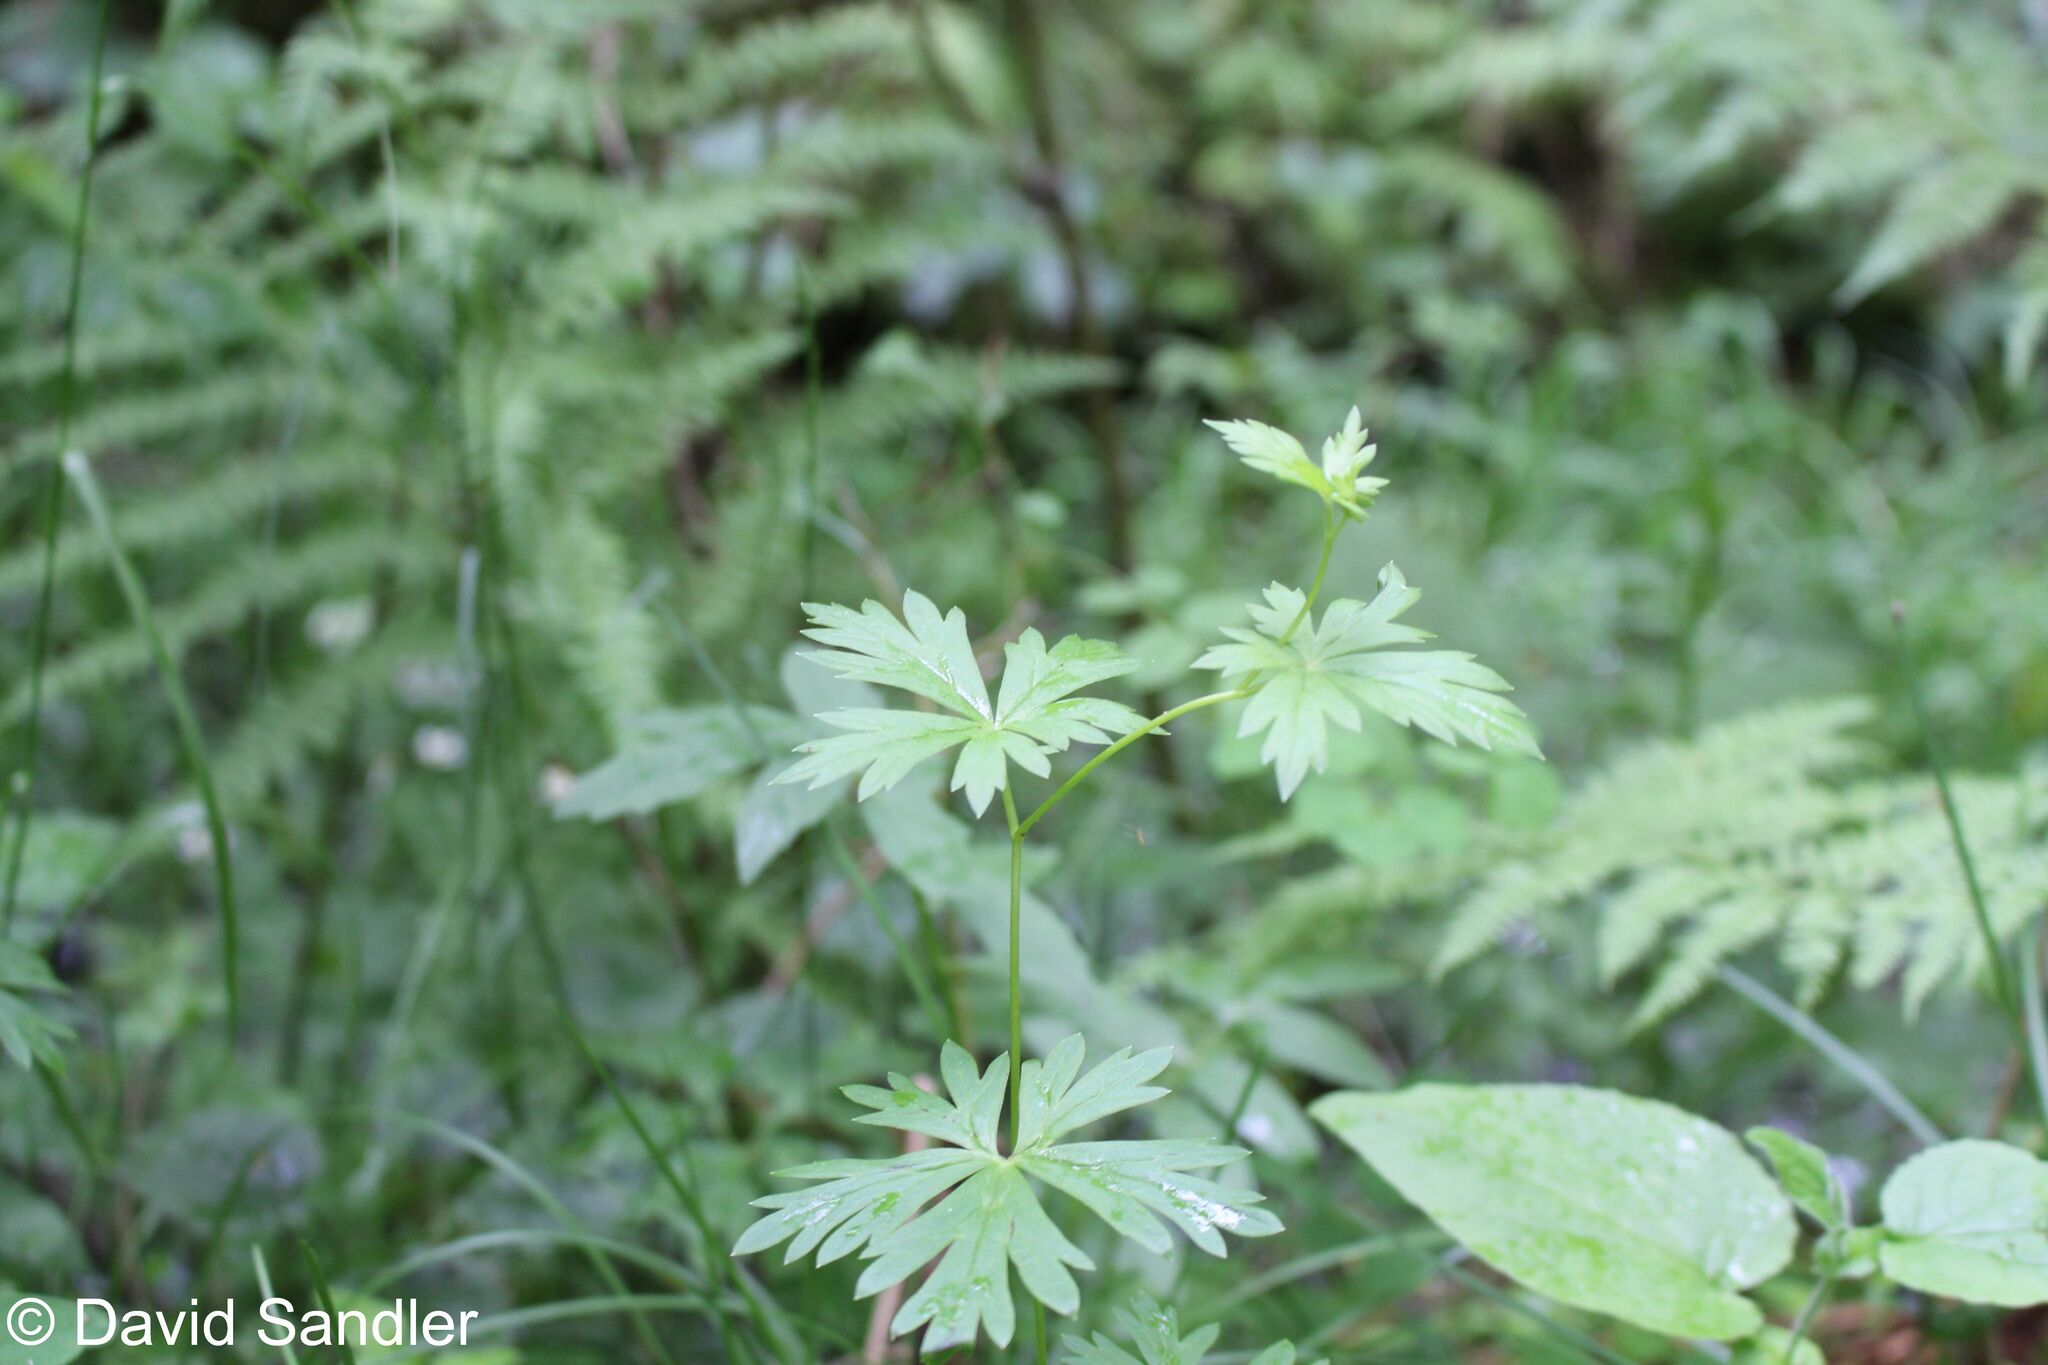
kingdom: Plantae
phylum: Tracheophyta
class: Magnoliopsida
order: Ranunculales
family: Ranunculaceae
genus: Aconitum
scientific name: Aconitum variegatum
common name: Manchurian monkshood
